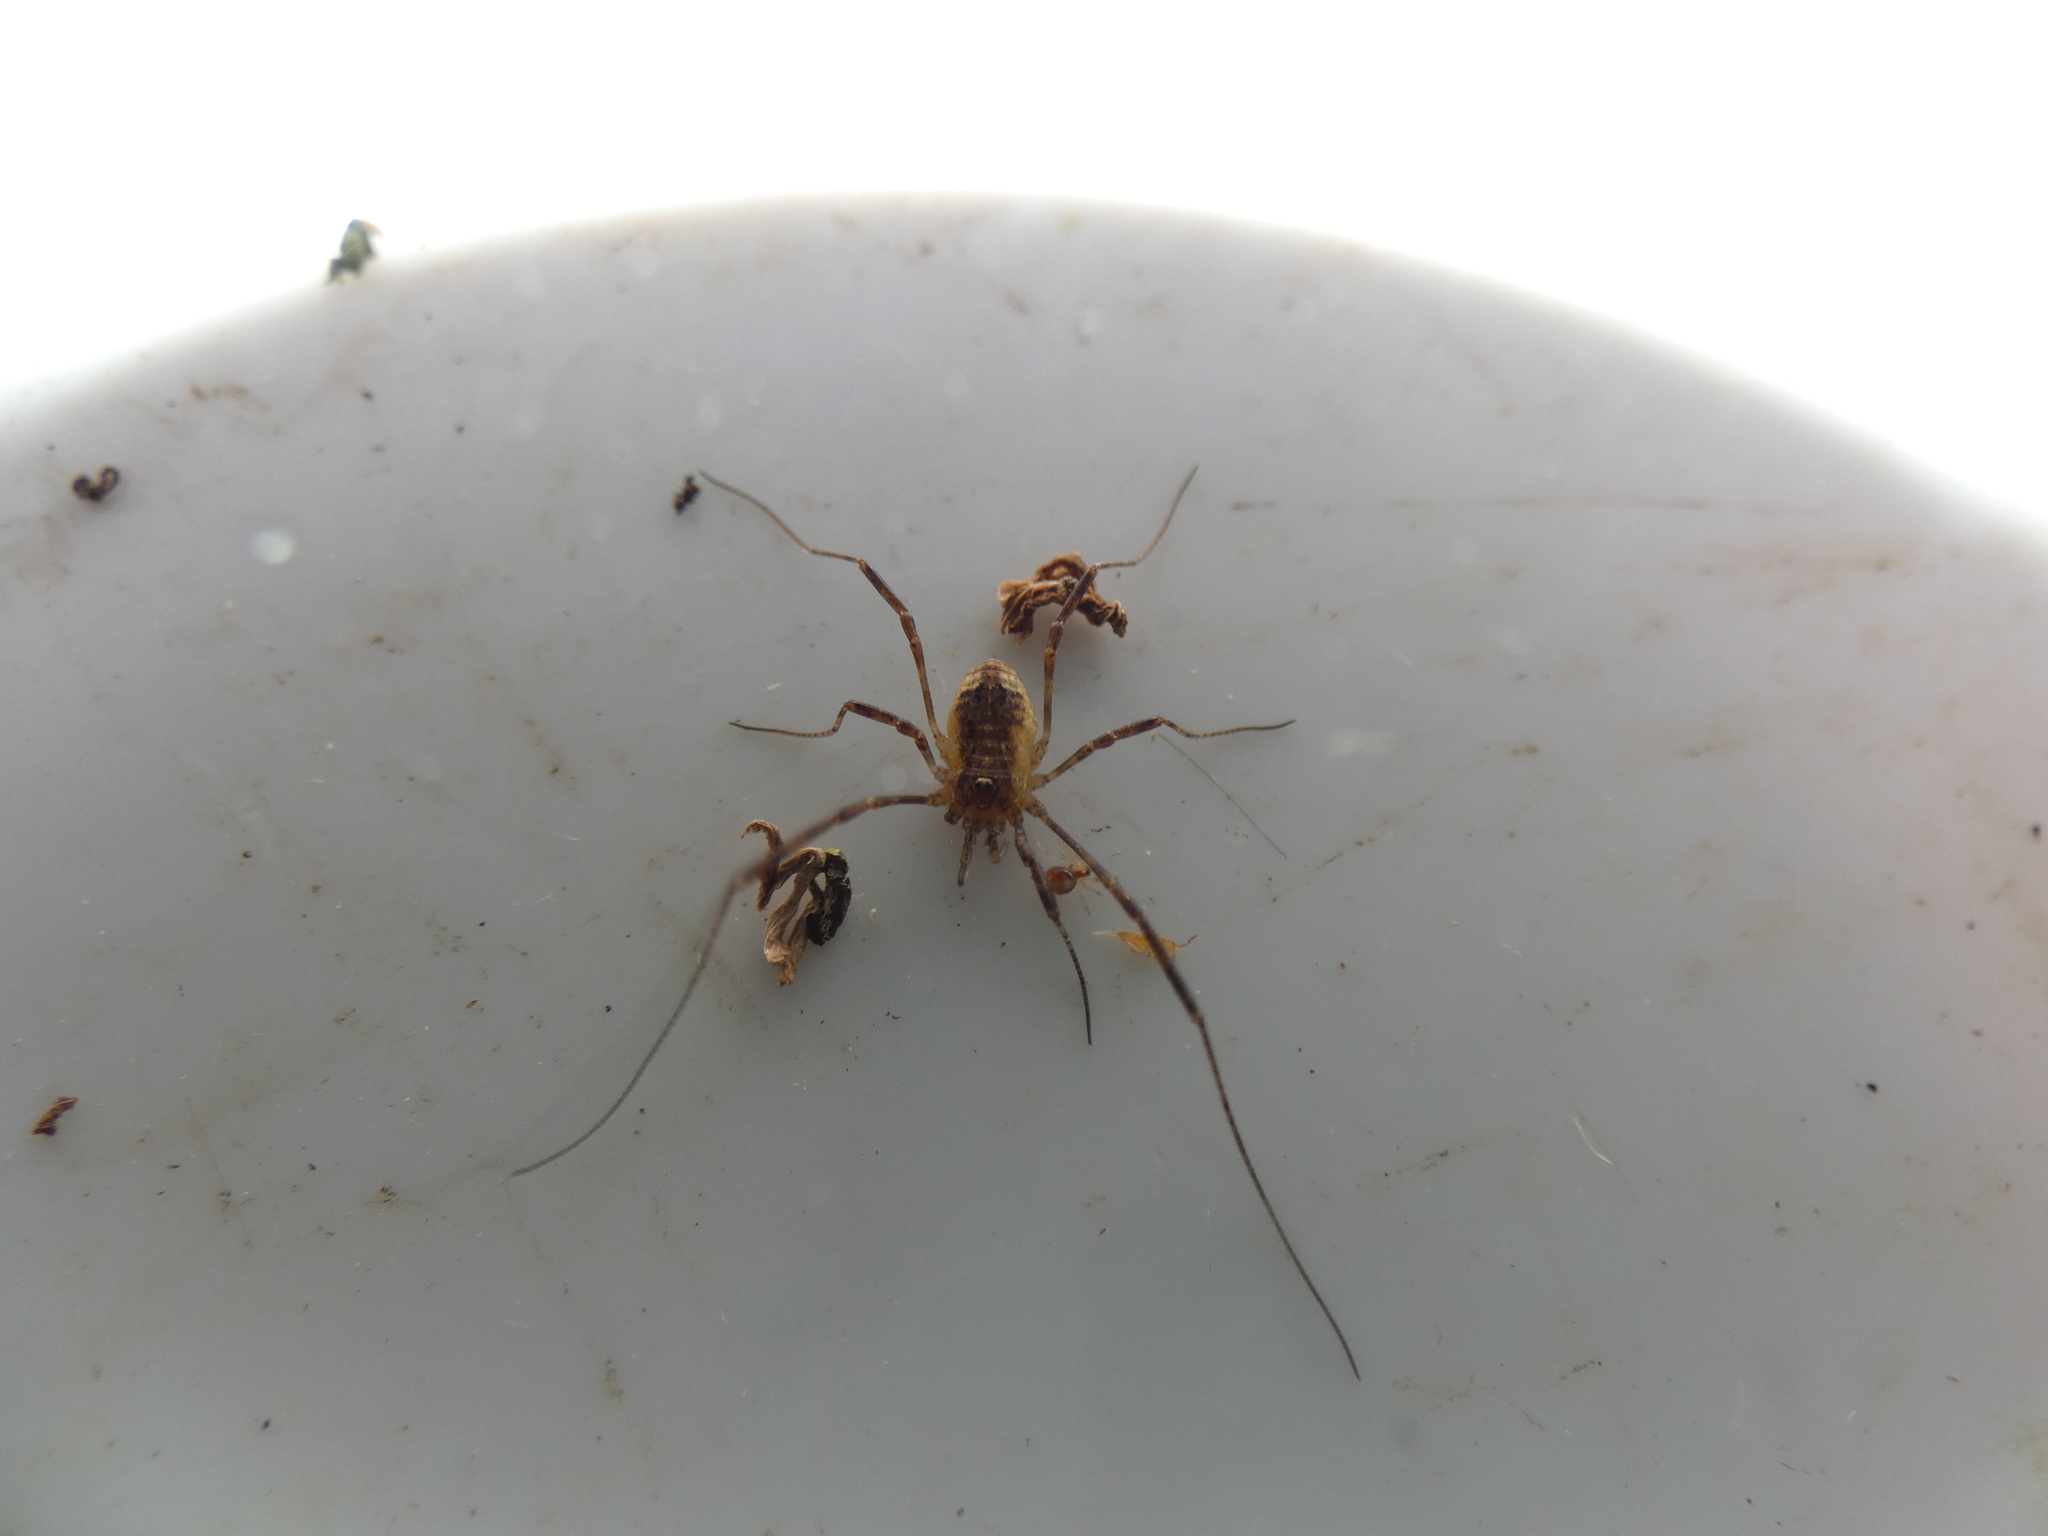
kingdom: Animalia
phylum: Arthropoda
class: Arachnida
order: Opiliones
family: Phalangiidae
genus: Paroligolophus
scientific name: Paroligolophus agrestis
